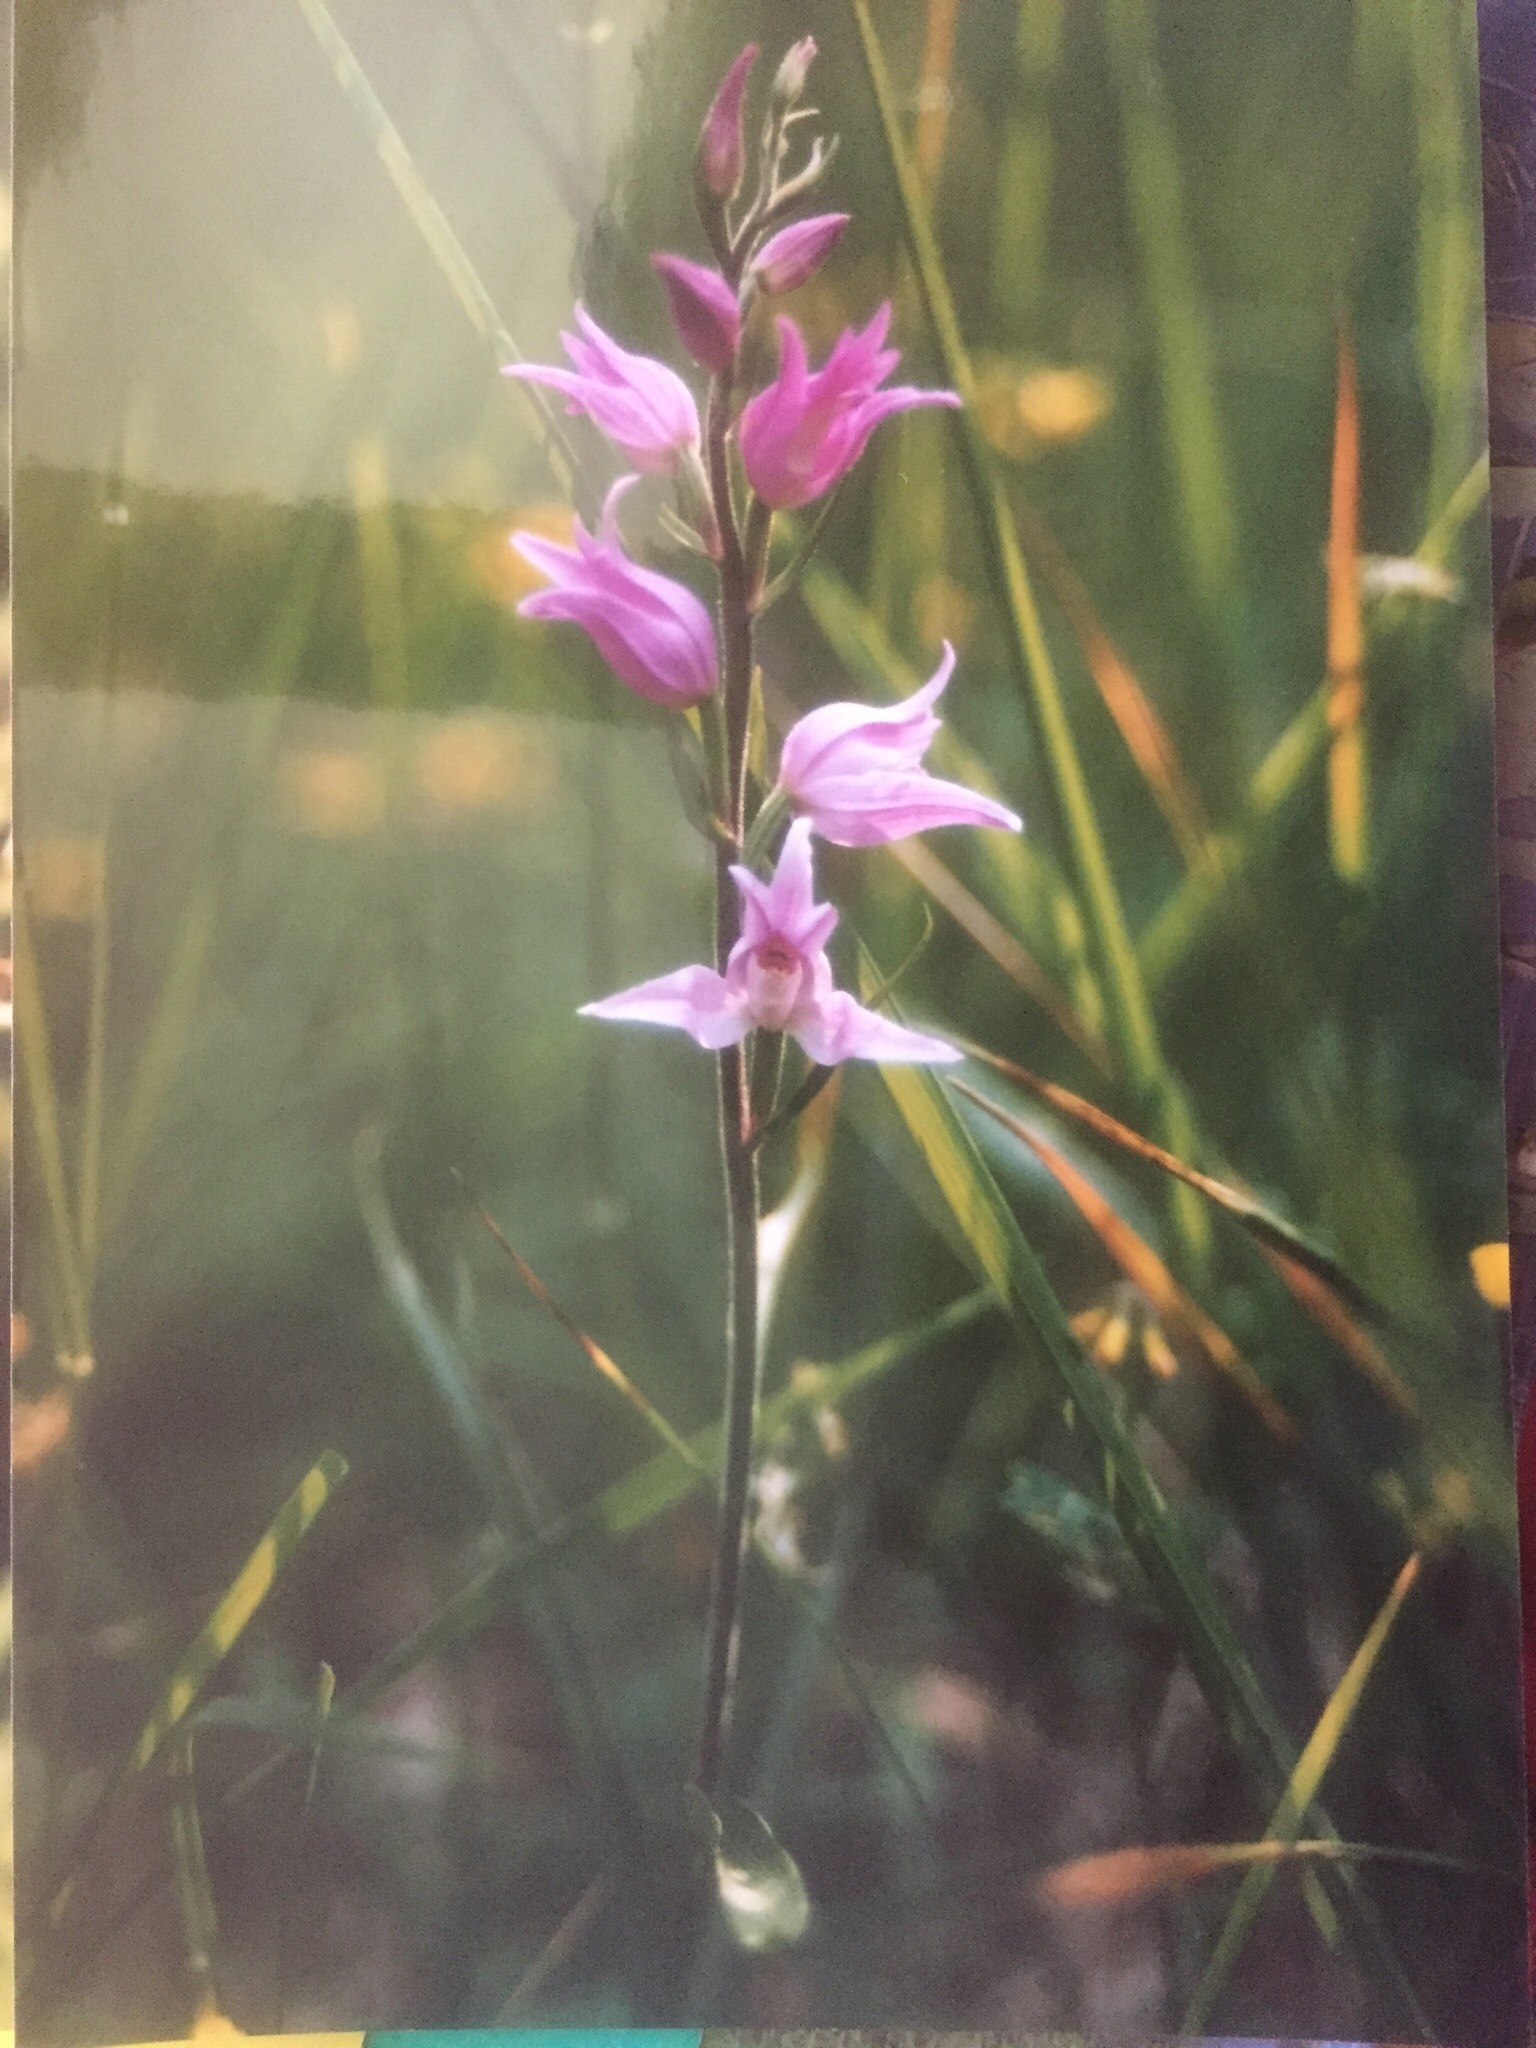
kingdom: Plantae
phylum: Tracheophyta
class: Liliopsida
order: Asparagales
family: Orchidaceae
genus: Cephalanthera
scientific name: Cephalanthera rubra
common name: Red helleborine
